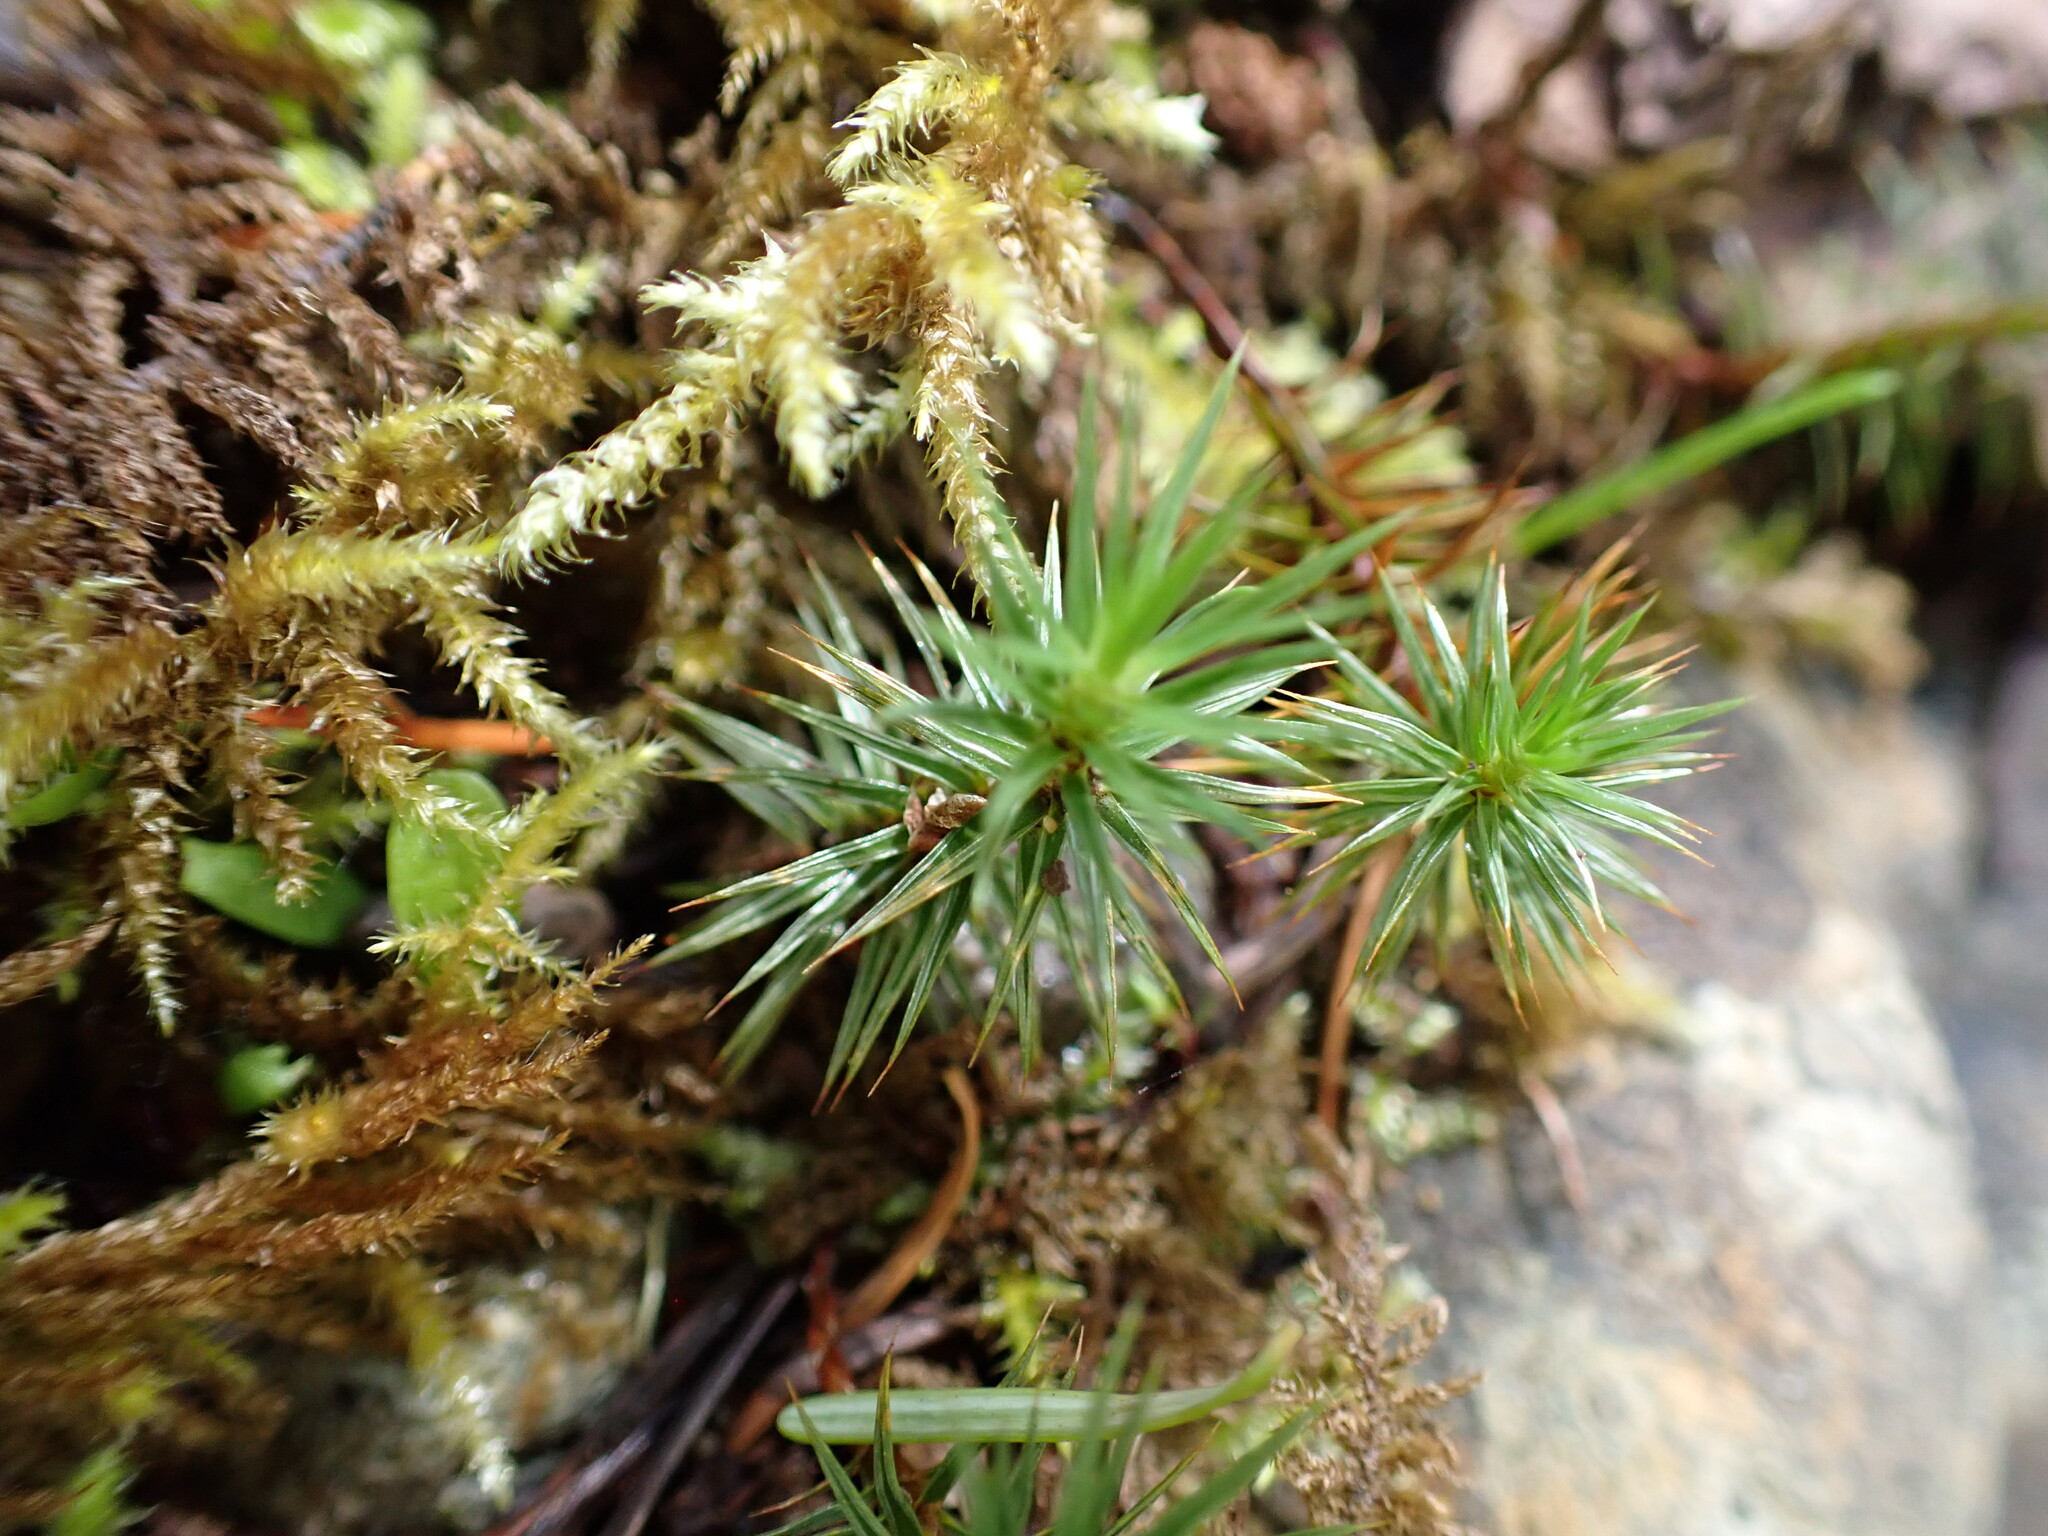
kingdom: Plantae
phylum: Bryophyta
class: Polytrichopsida
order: Polytrichales
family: Polytrichaceae
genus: Polytrichum
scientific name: Polytrichum juniperinum
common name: Juniper haircap moss
